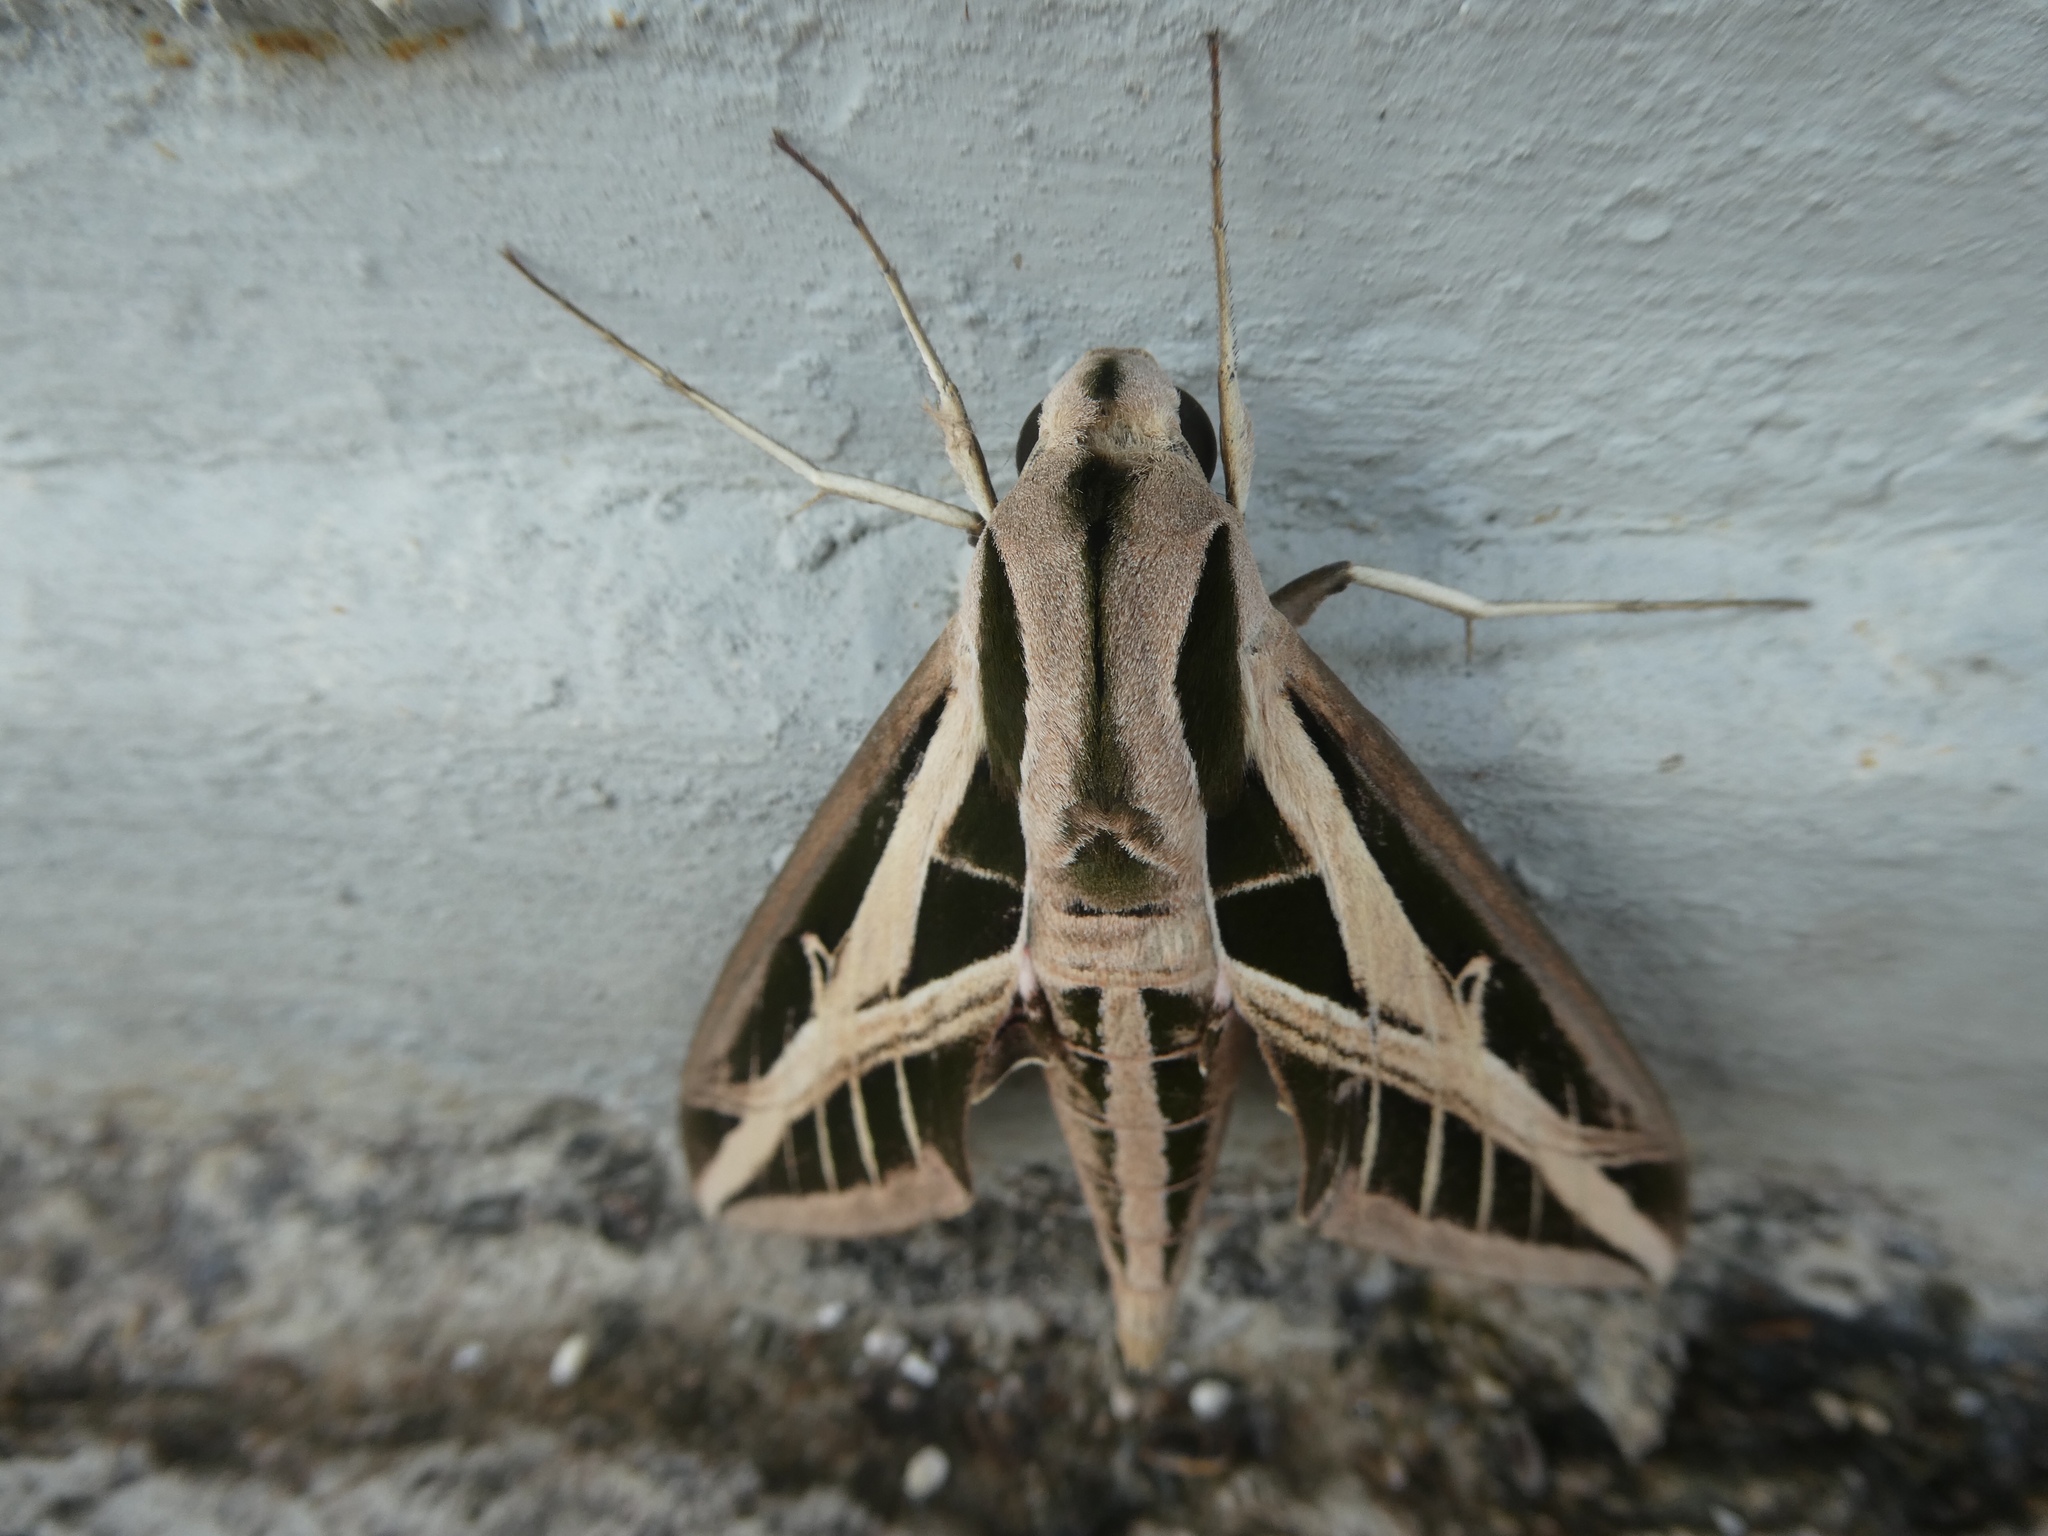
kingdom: Animalia
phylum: Arthropoda
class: Insecta
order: Lepidoptera
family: Sphingidae
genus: Eumorpha
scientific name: Eumorpha fasciatus
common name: Banded sphinx
